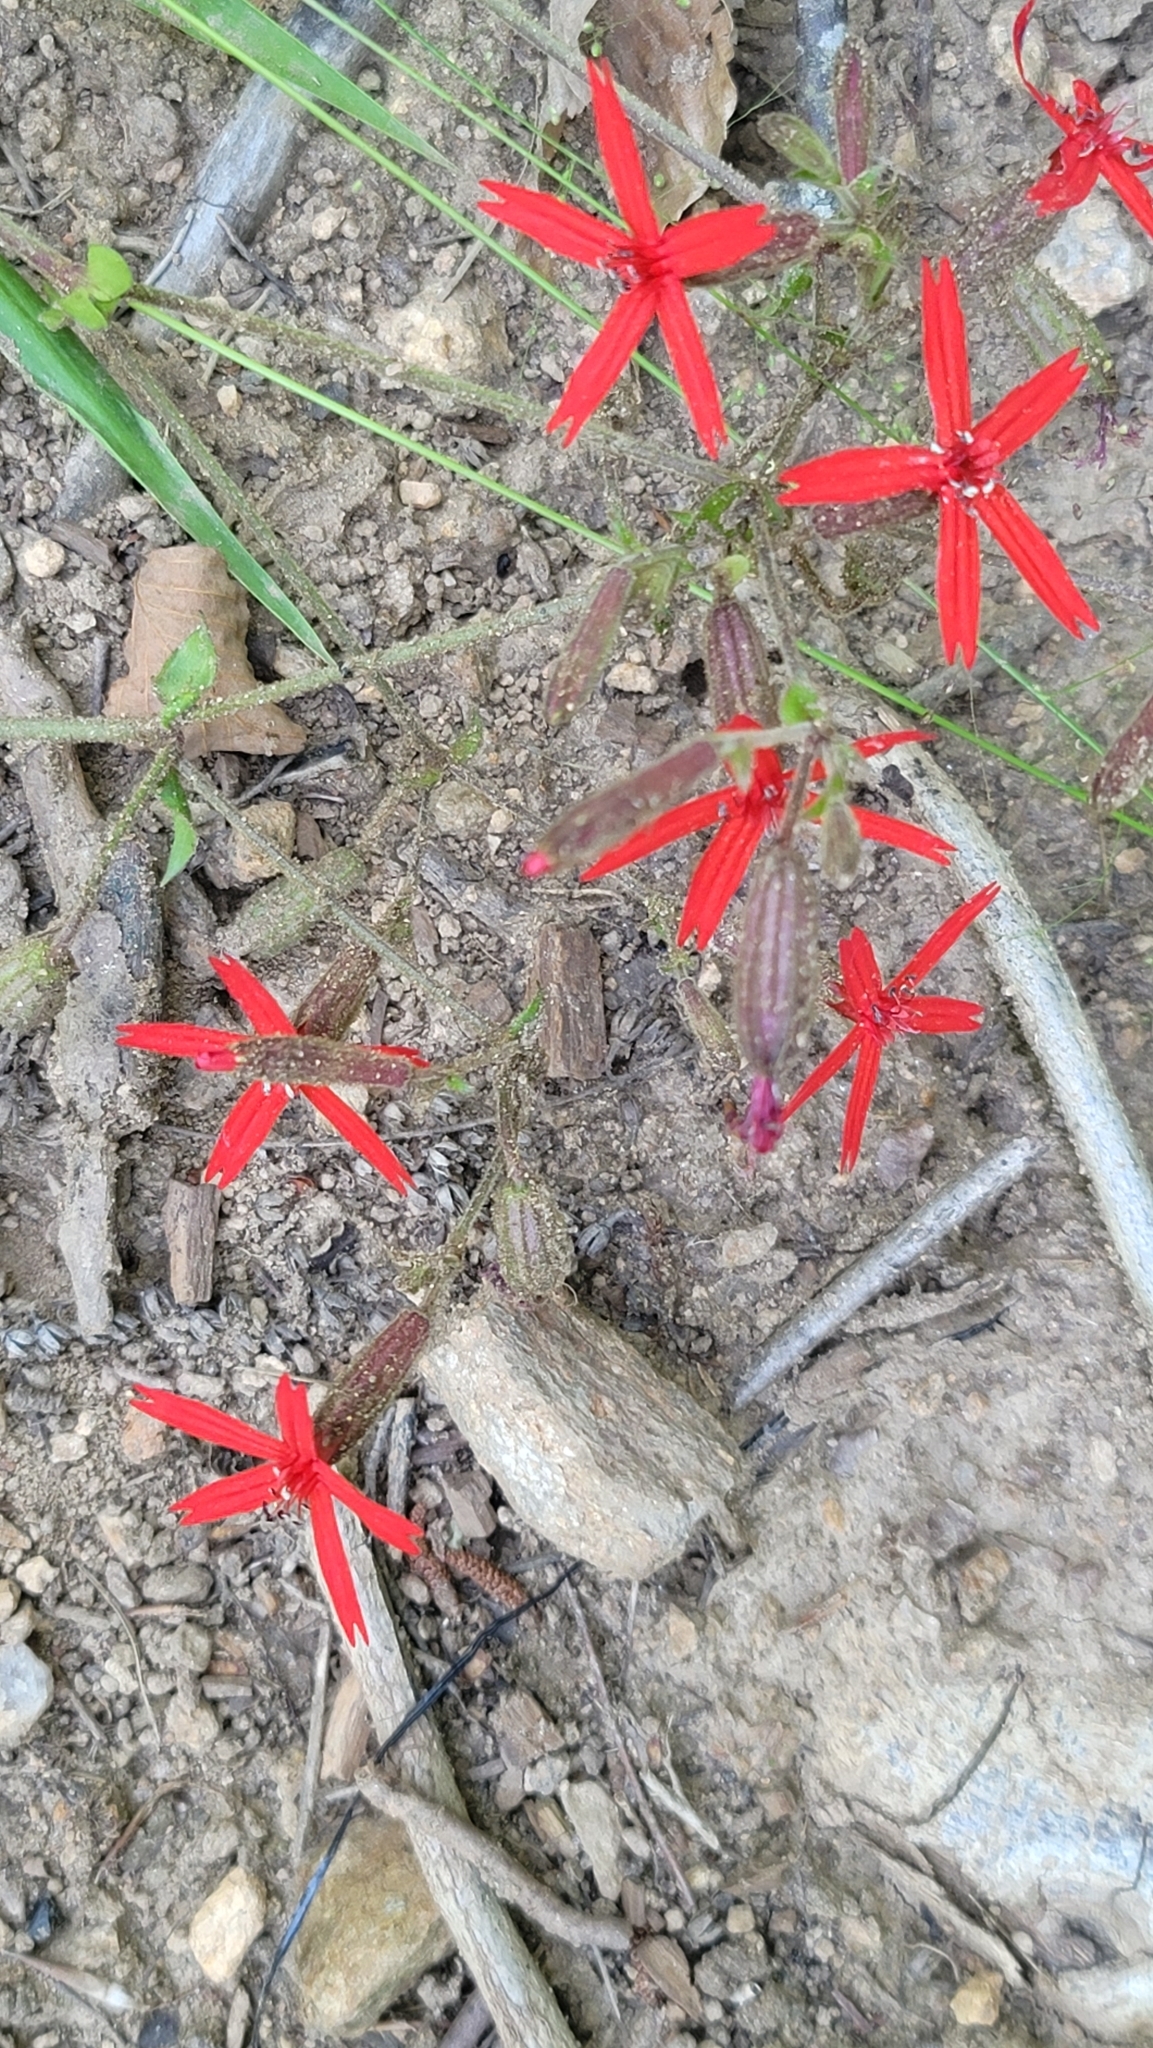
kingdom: Plantae
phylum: Tracheophyta
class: Magnoliopsida
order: Caryophyllales
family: Caryophyllaceae
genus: Silene
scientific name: Silene virginica
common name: Fire-pink
